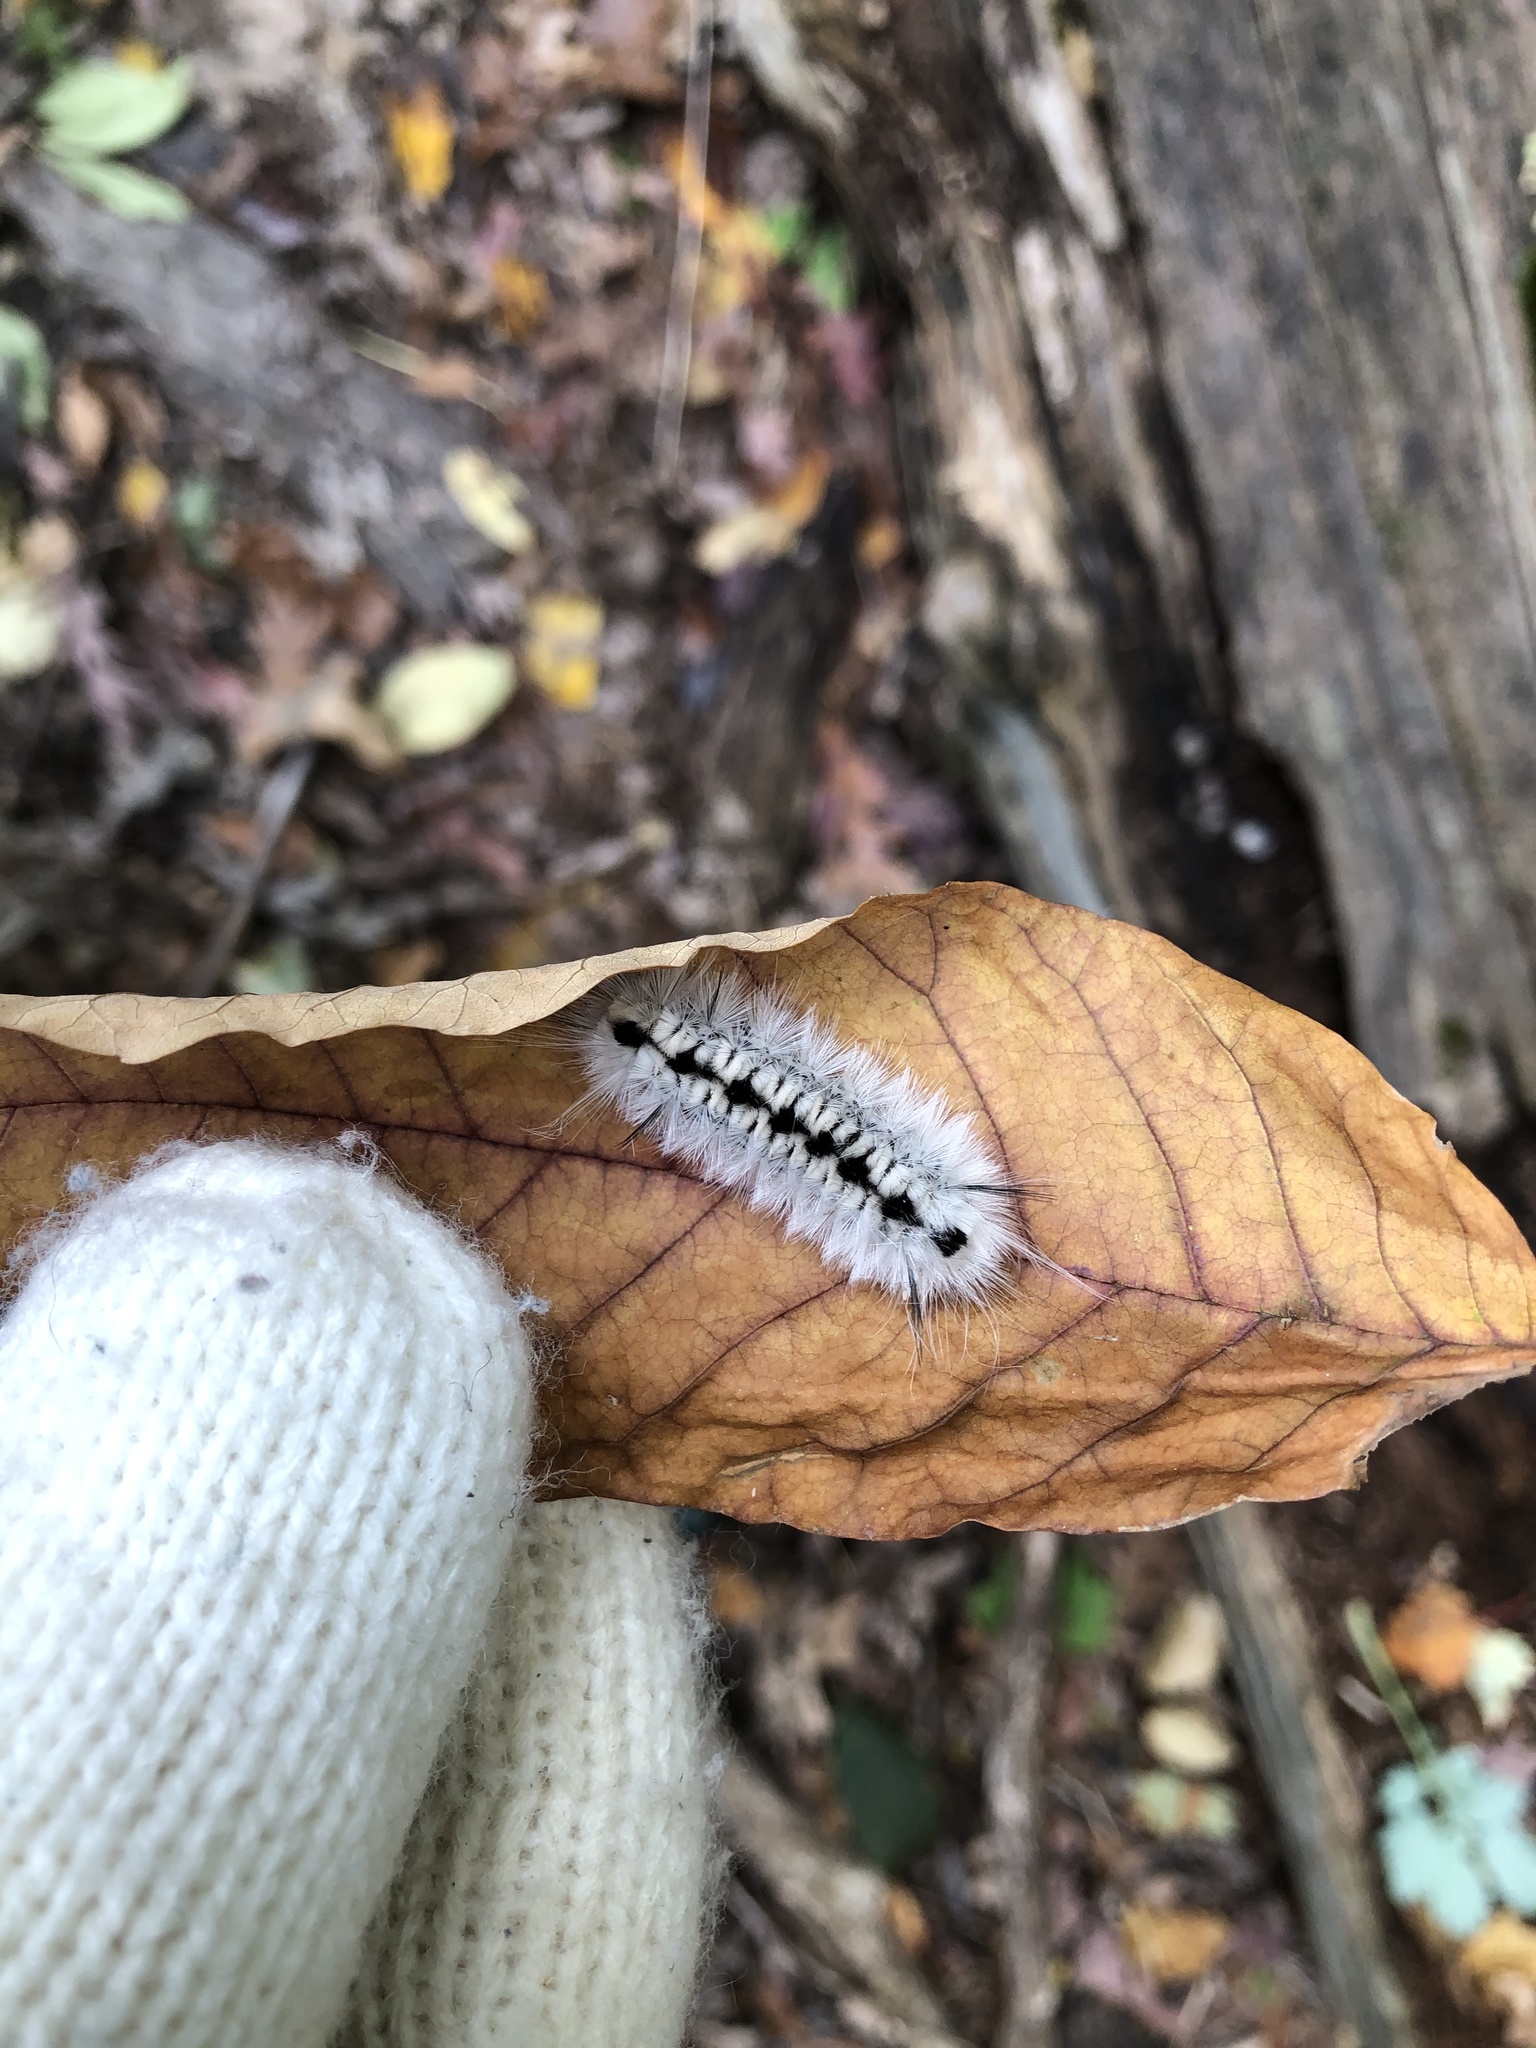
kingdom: Animalia
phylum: Arthropoda
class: Insecta
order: Lepidoptera
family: Erebidae
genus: Lophocampa
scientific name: Lophocampa caryae
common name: Hickory tussock moth
